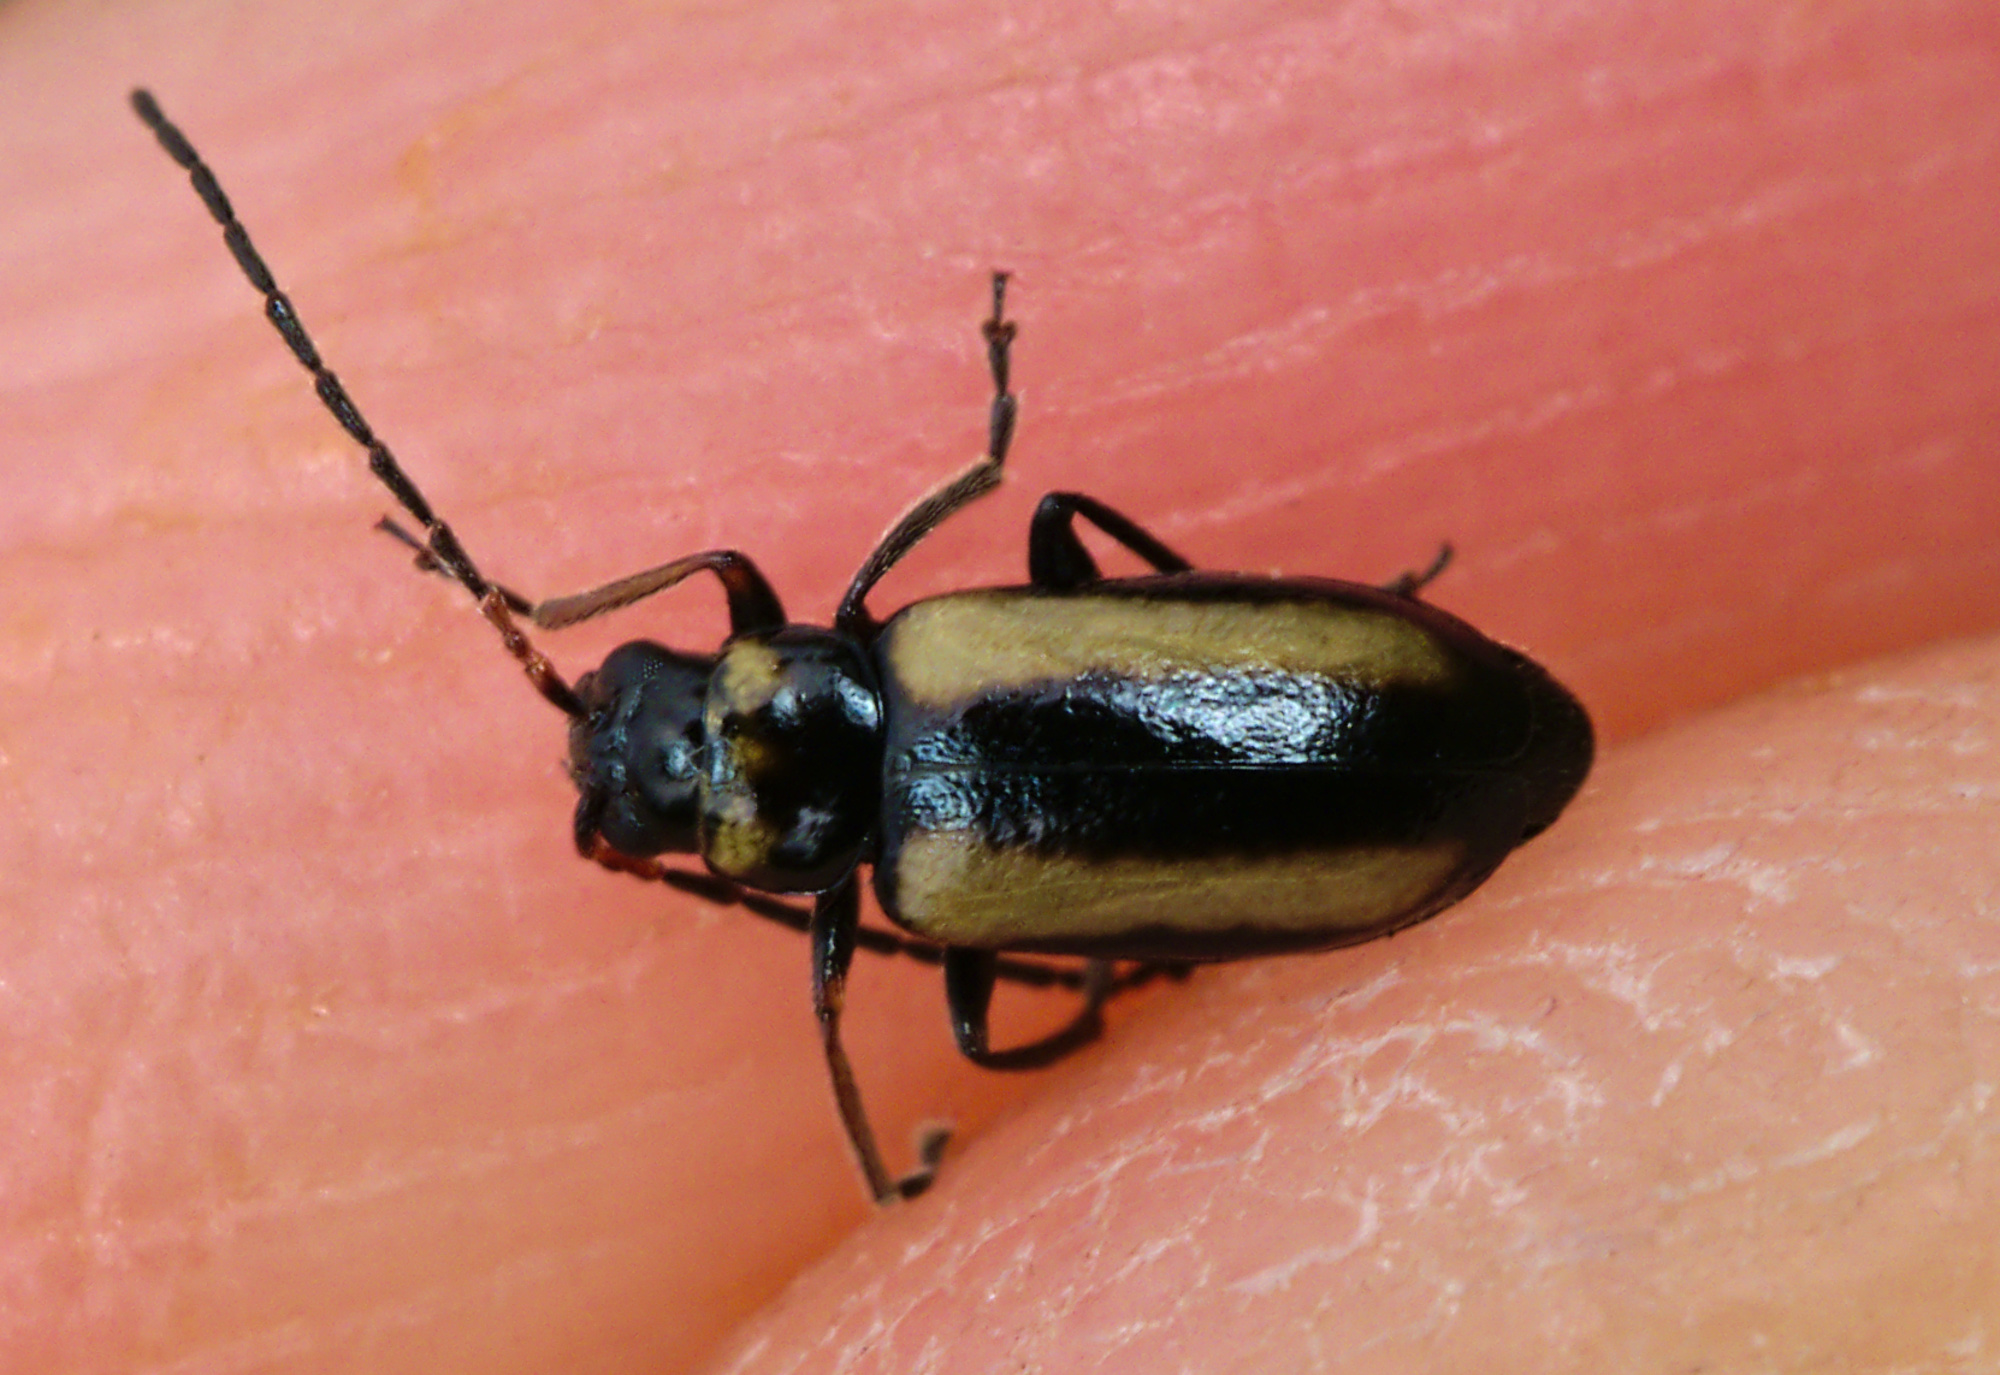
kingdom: Animalia
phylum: Arthropoda
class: Insecta
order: Coleoptera
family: Chrysomelidae
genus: Calomicrus
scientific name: Calomicrus circumfusus
